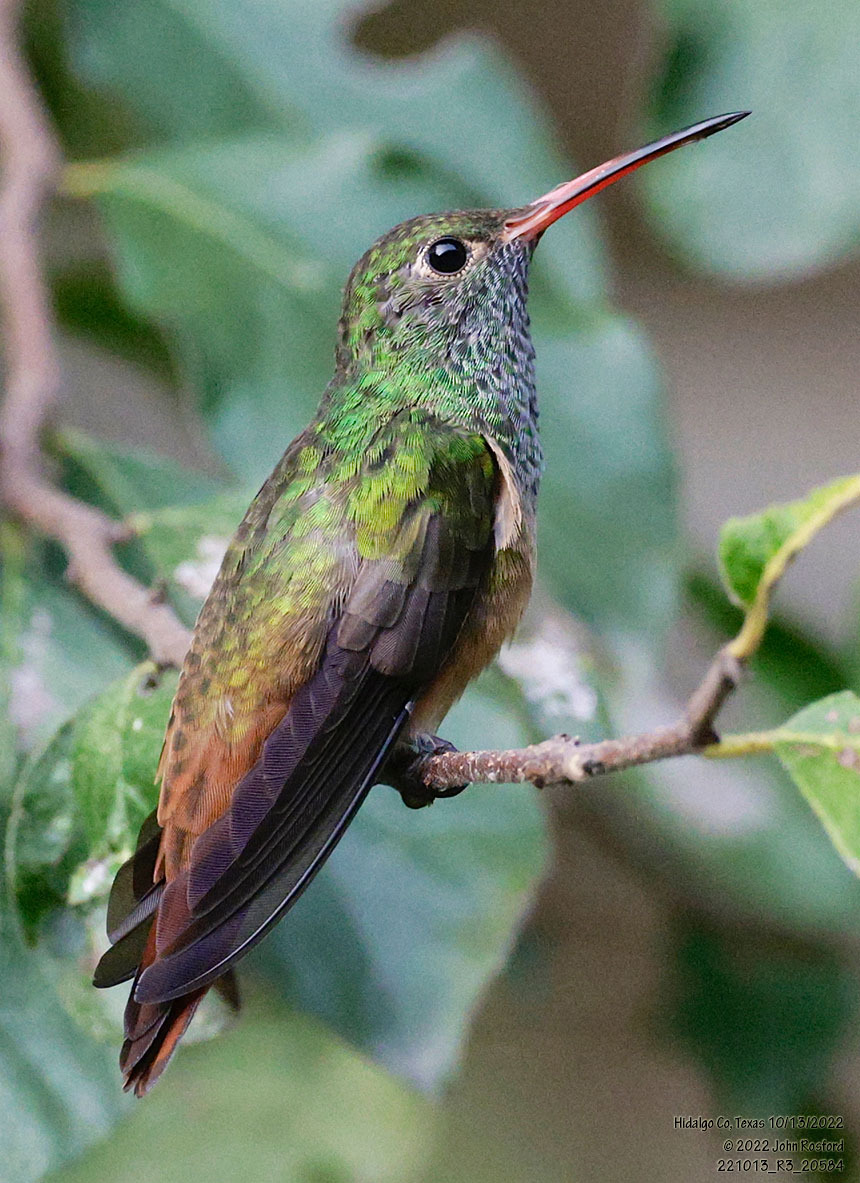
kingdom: Animalia
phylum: Chordata
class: Aves
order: Apodiformes
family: Trochilidae
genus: Amazilia
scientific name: Amazilia yucatanensis
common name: Buff-bellied hummingbird
